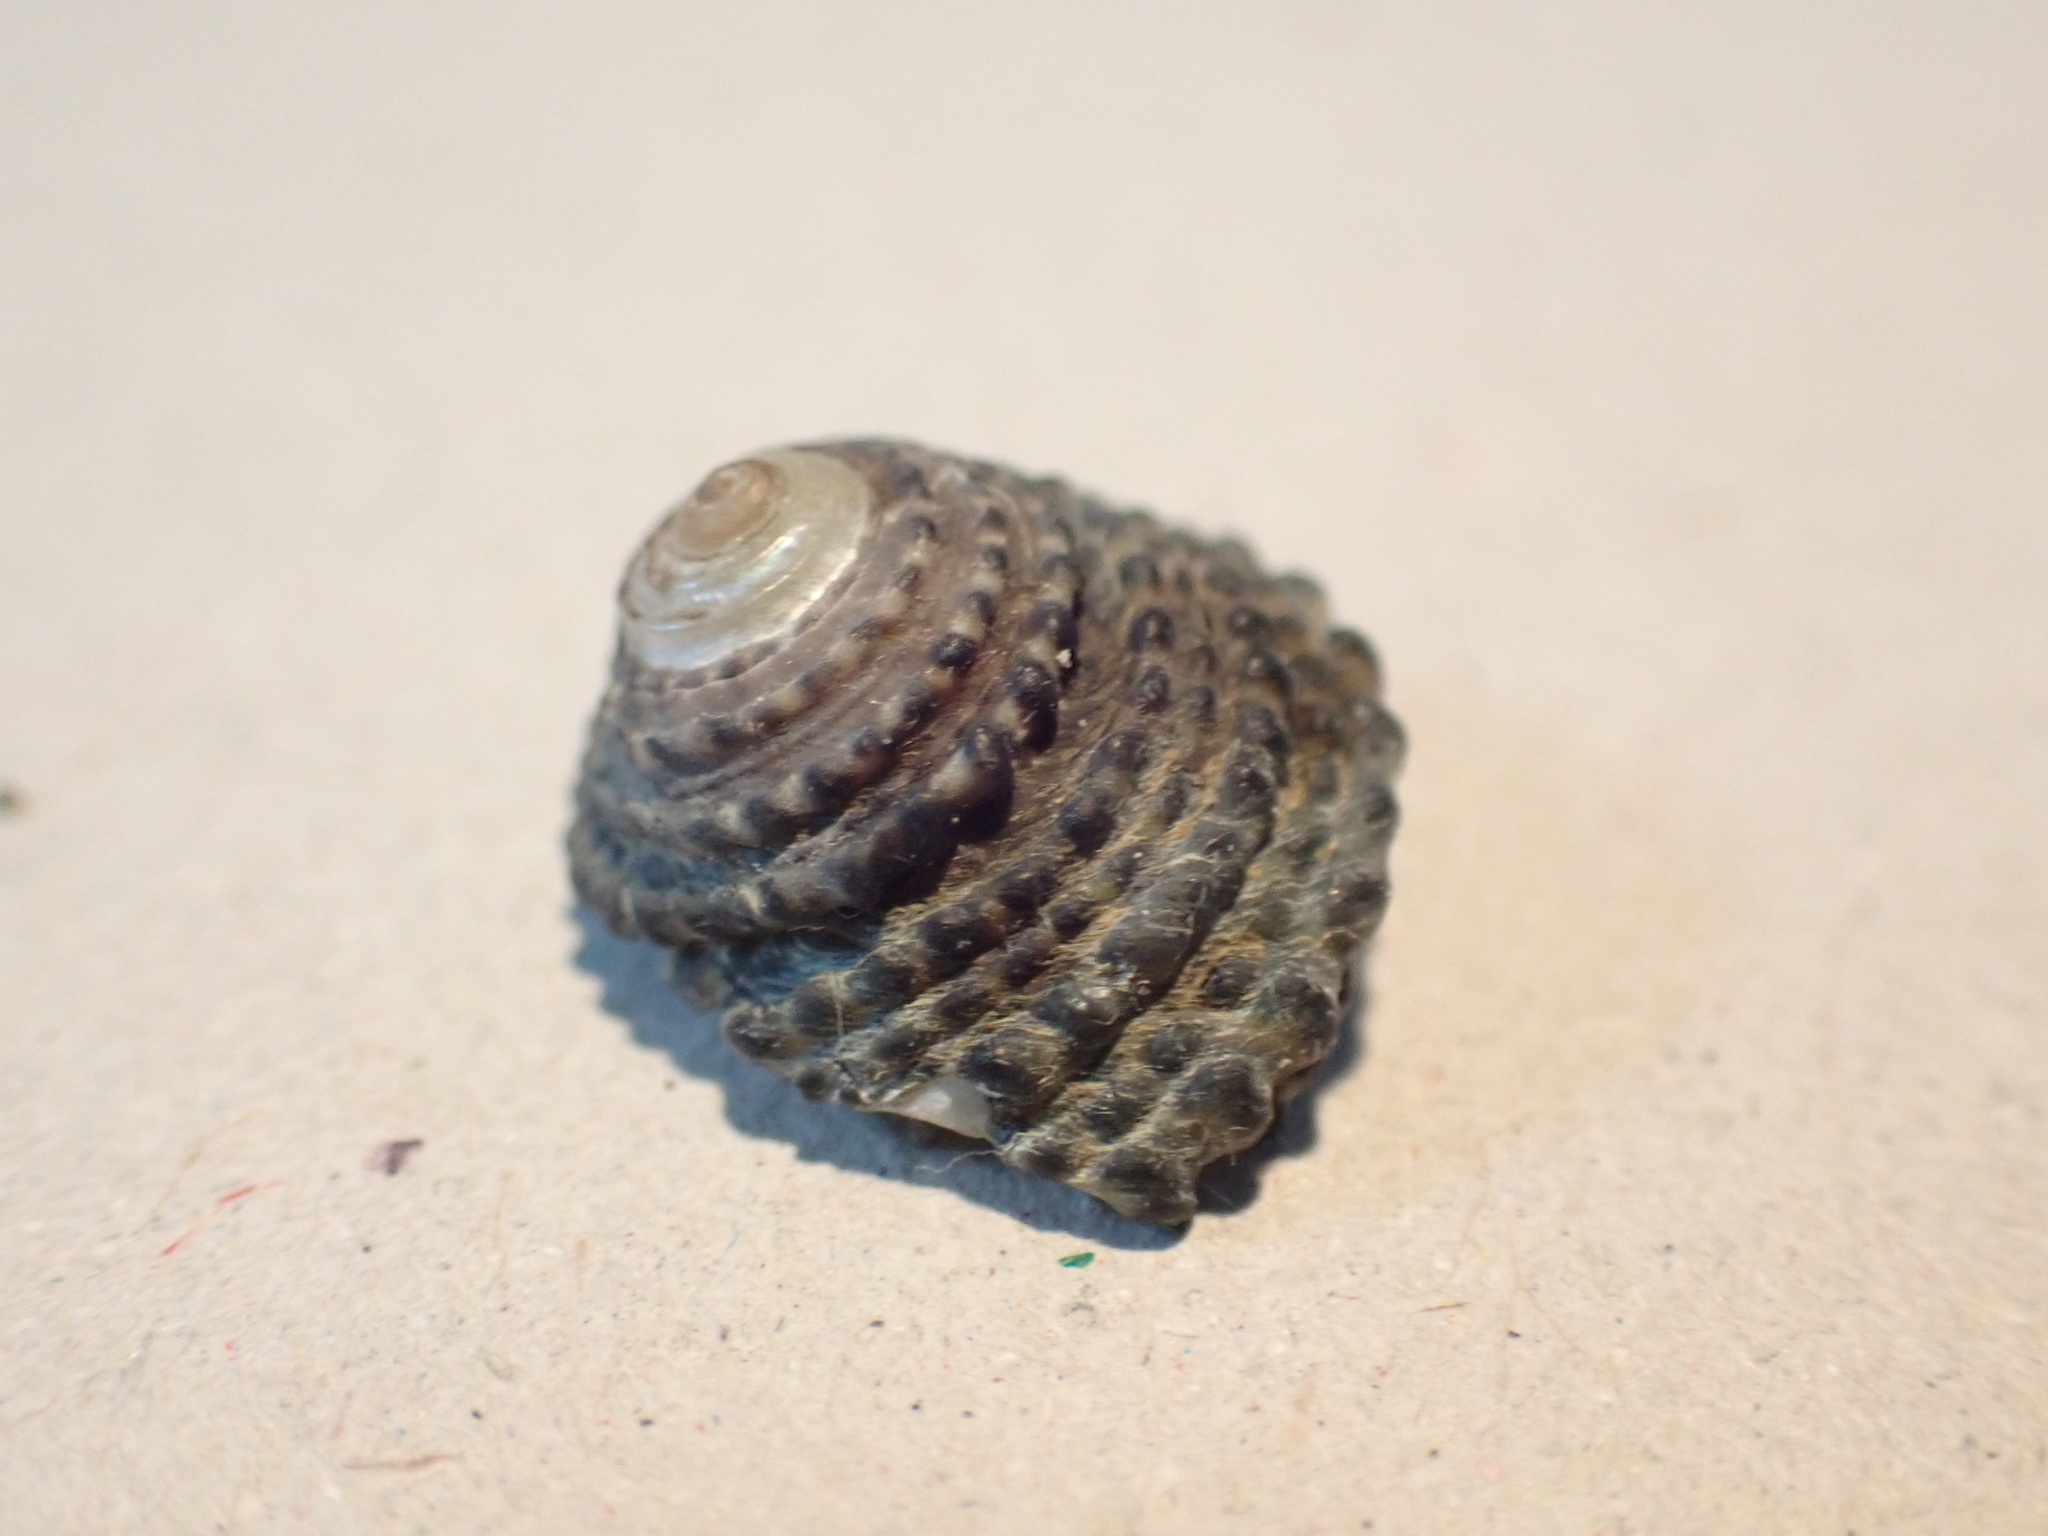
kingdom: Animalia
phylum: Mollusca
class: Gastropoda
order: Trochida
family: Trochidae
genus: Diloma
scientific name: Diloma bicanaliculatum
